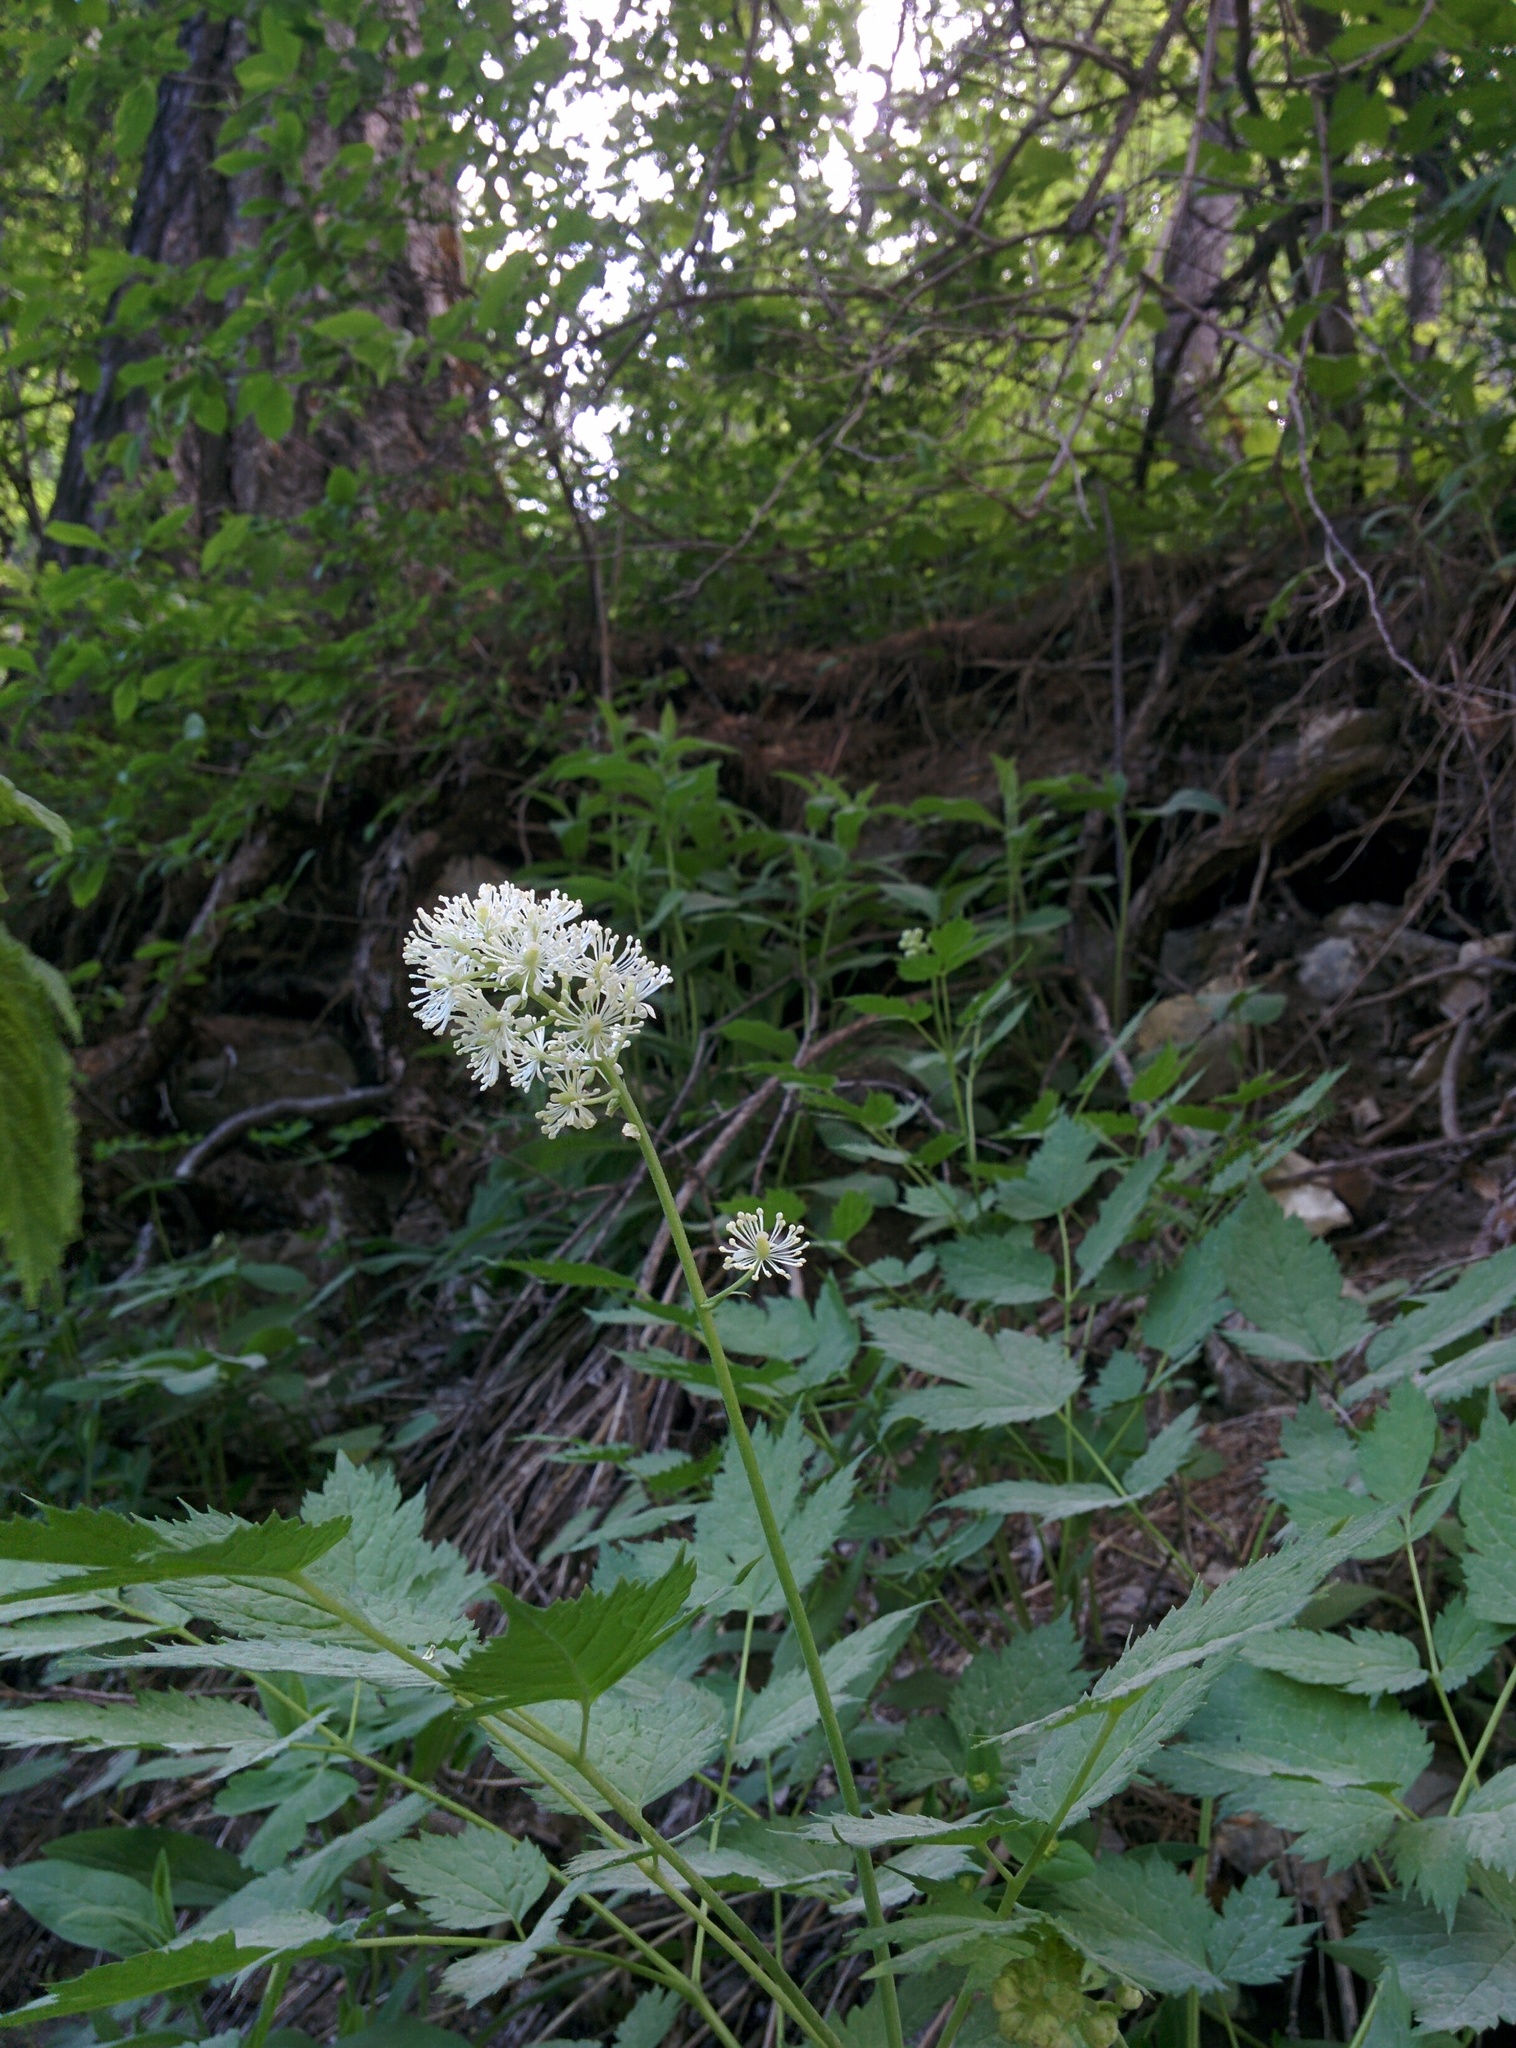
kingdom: Plantae
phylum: Tracheophyta
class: Magnoliopsida
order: Ranunculales
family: Ranunculaceae
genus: Actaea
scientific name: Actaea spicata
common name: Baneberry
